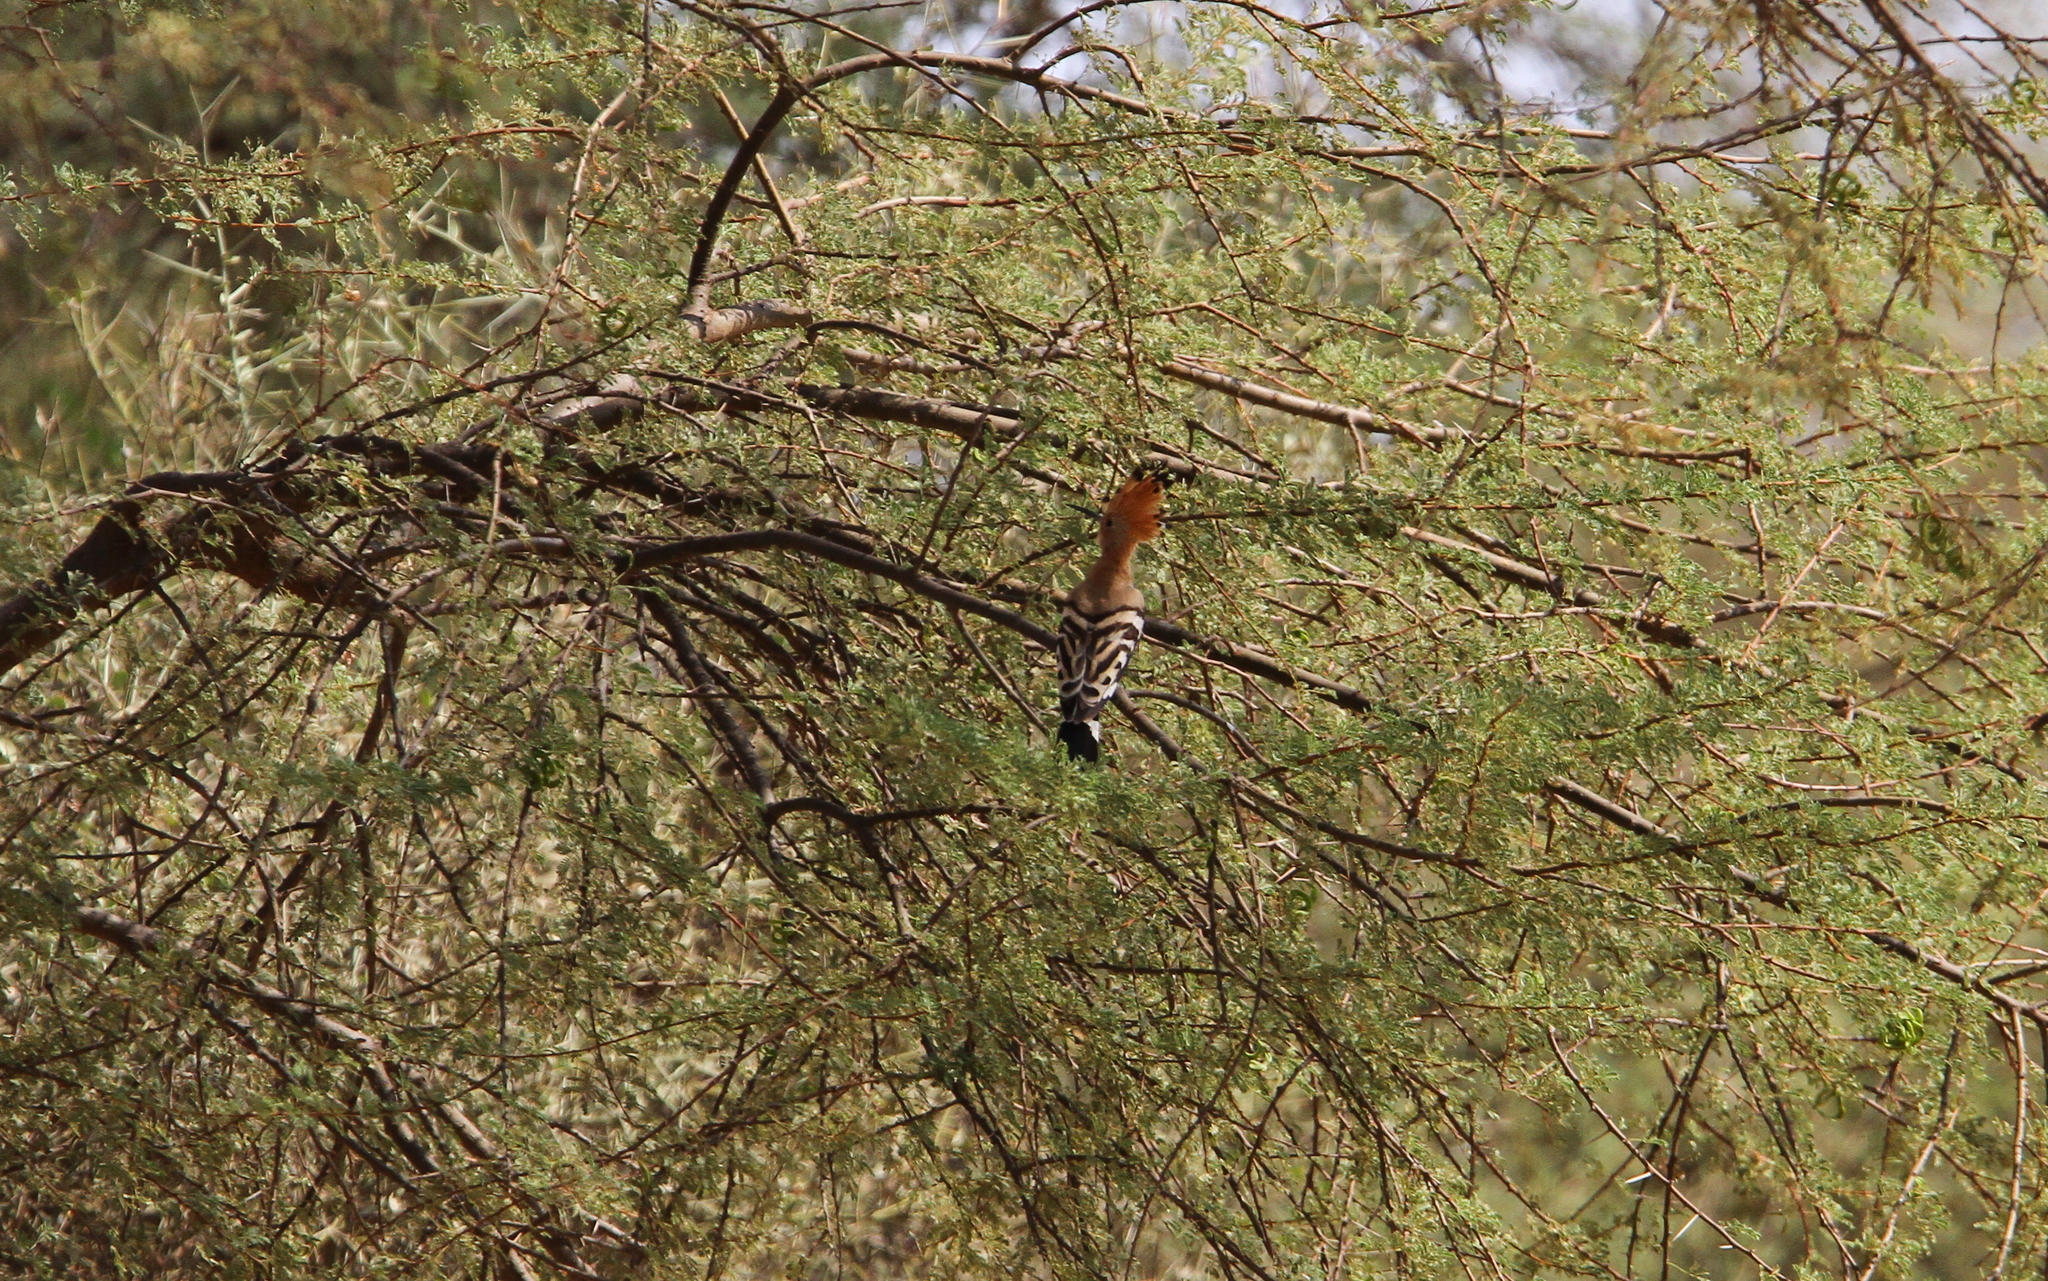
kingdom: Animalia
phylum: Chordata
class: Aves
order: Bucerotiformes
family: Upupidae
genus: Upupa
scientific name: Upupa epops
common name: Eurasian hoopoe
